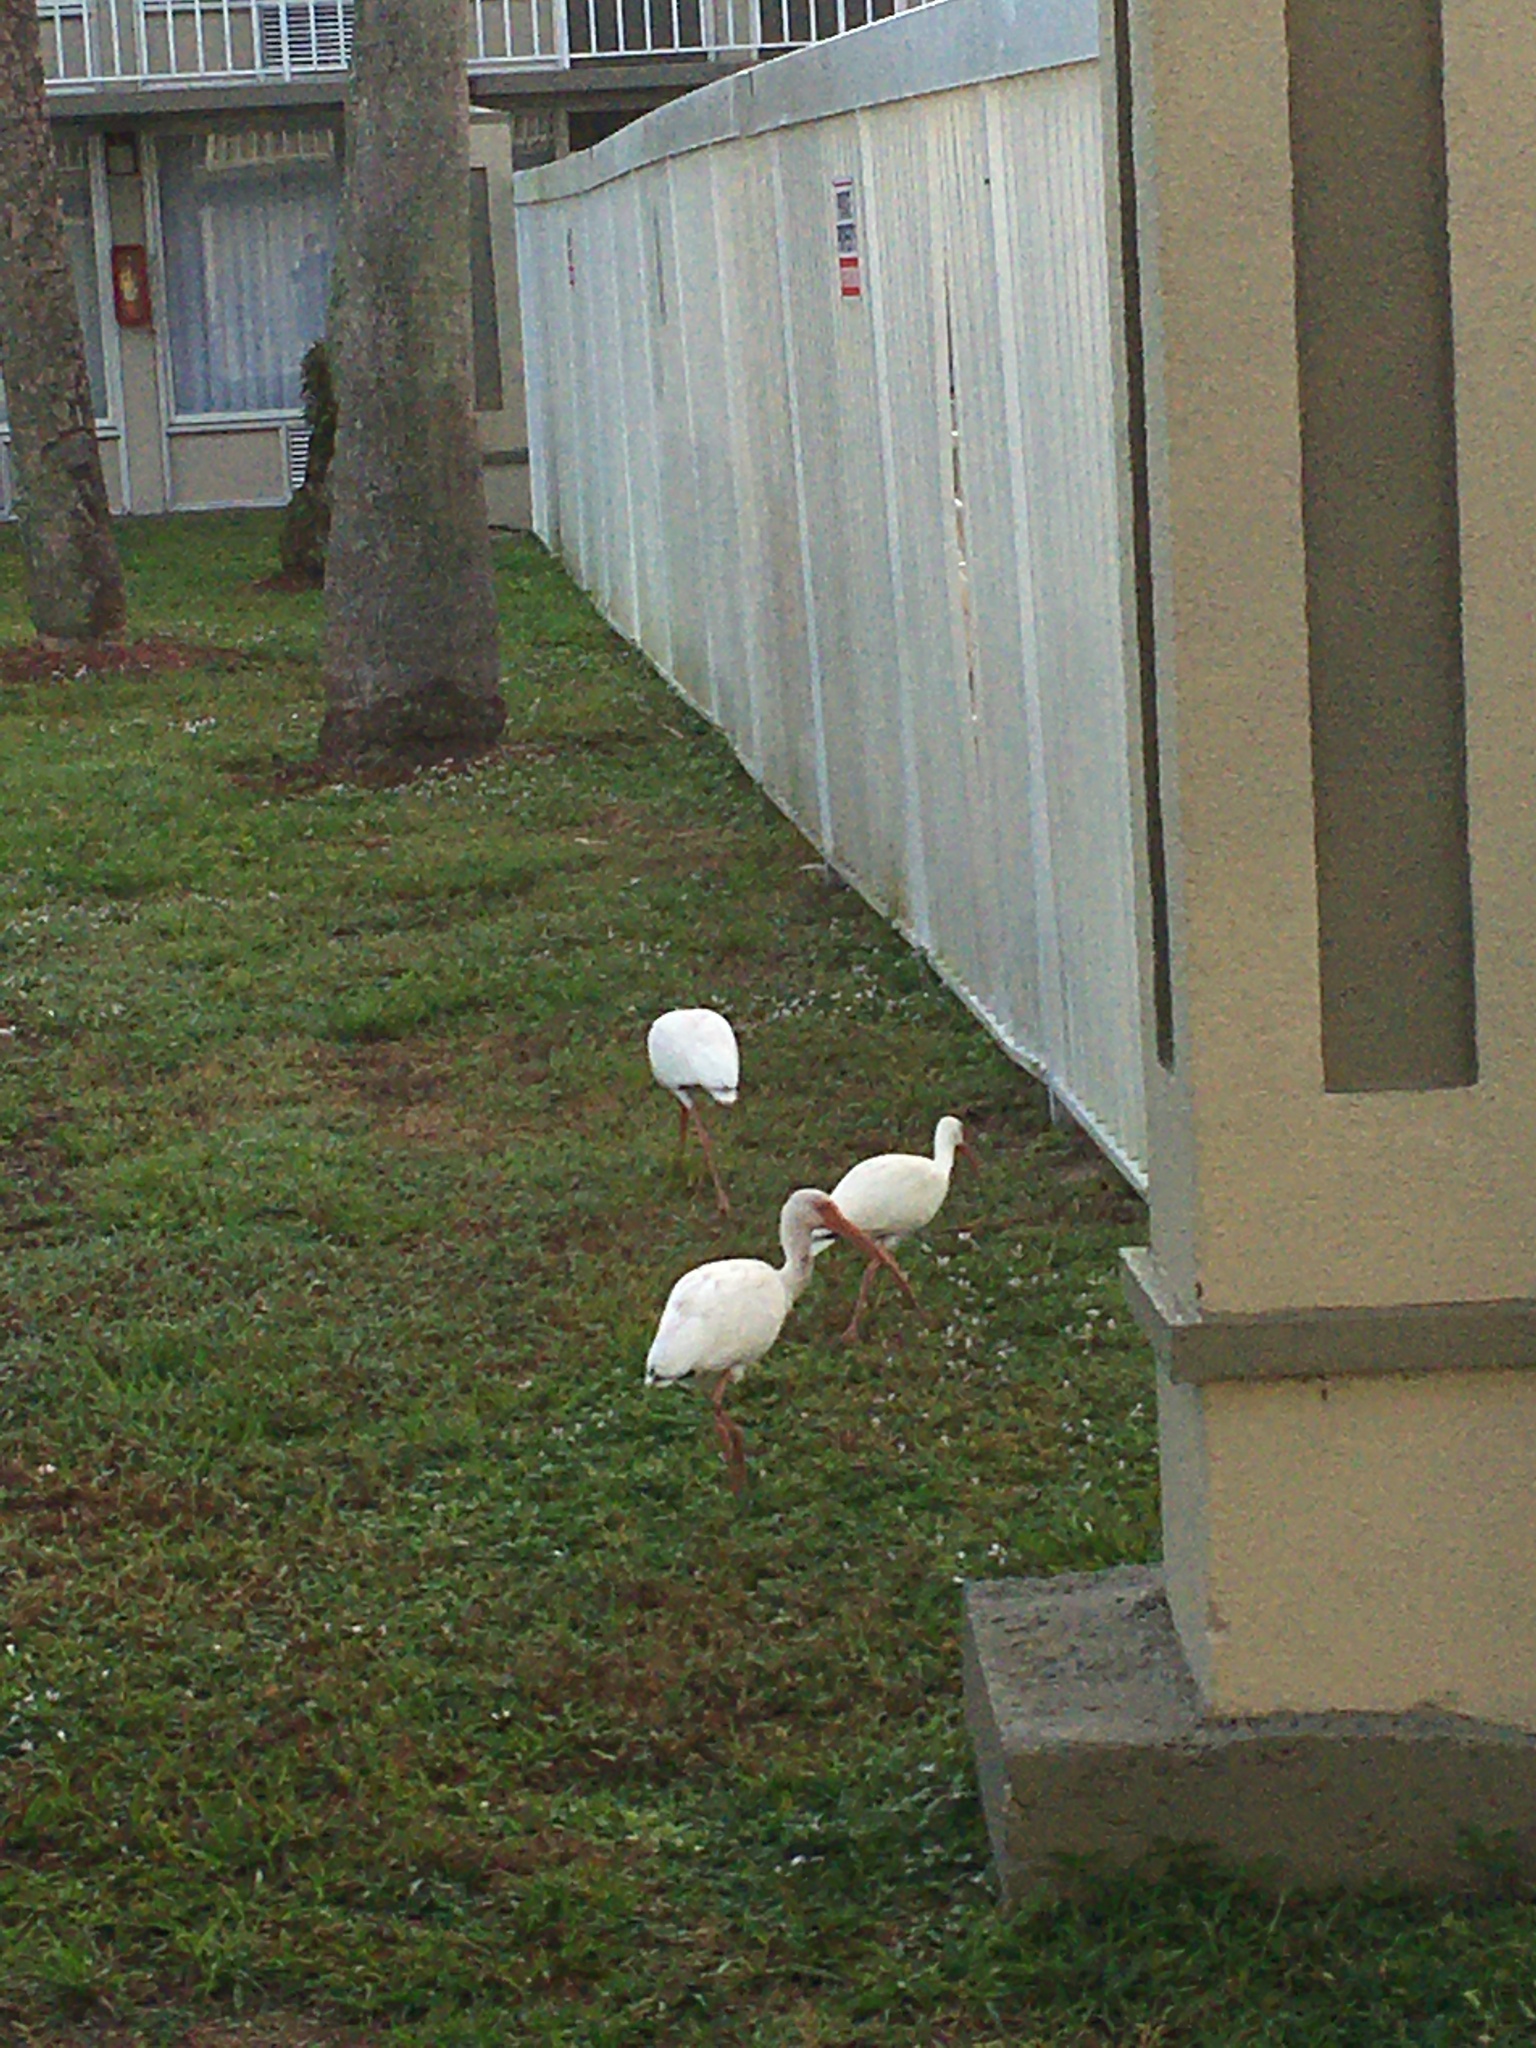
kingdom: Animalia
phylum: Chordata
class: Aves
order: Pelecaniformes
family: Threskiornithidae
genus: Eudocimus
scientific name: Eudocimus albus
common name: White ibis
